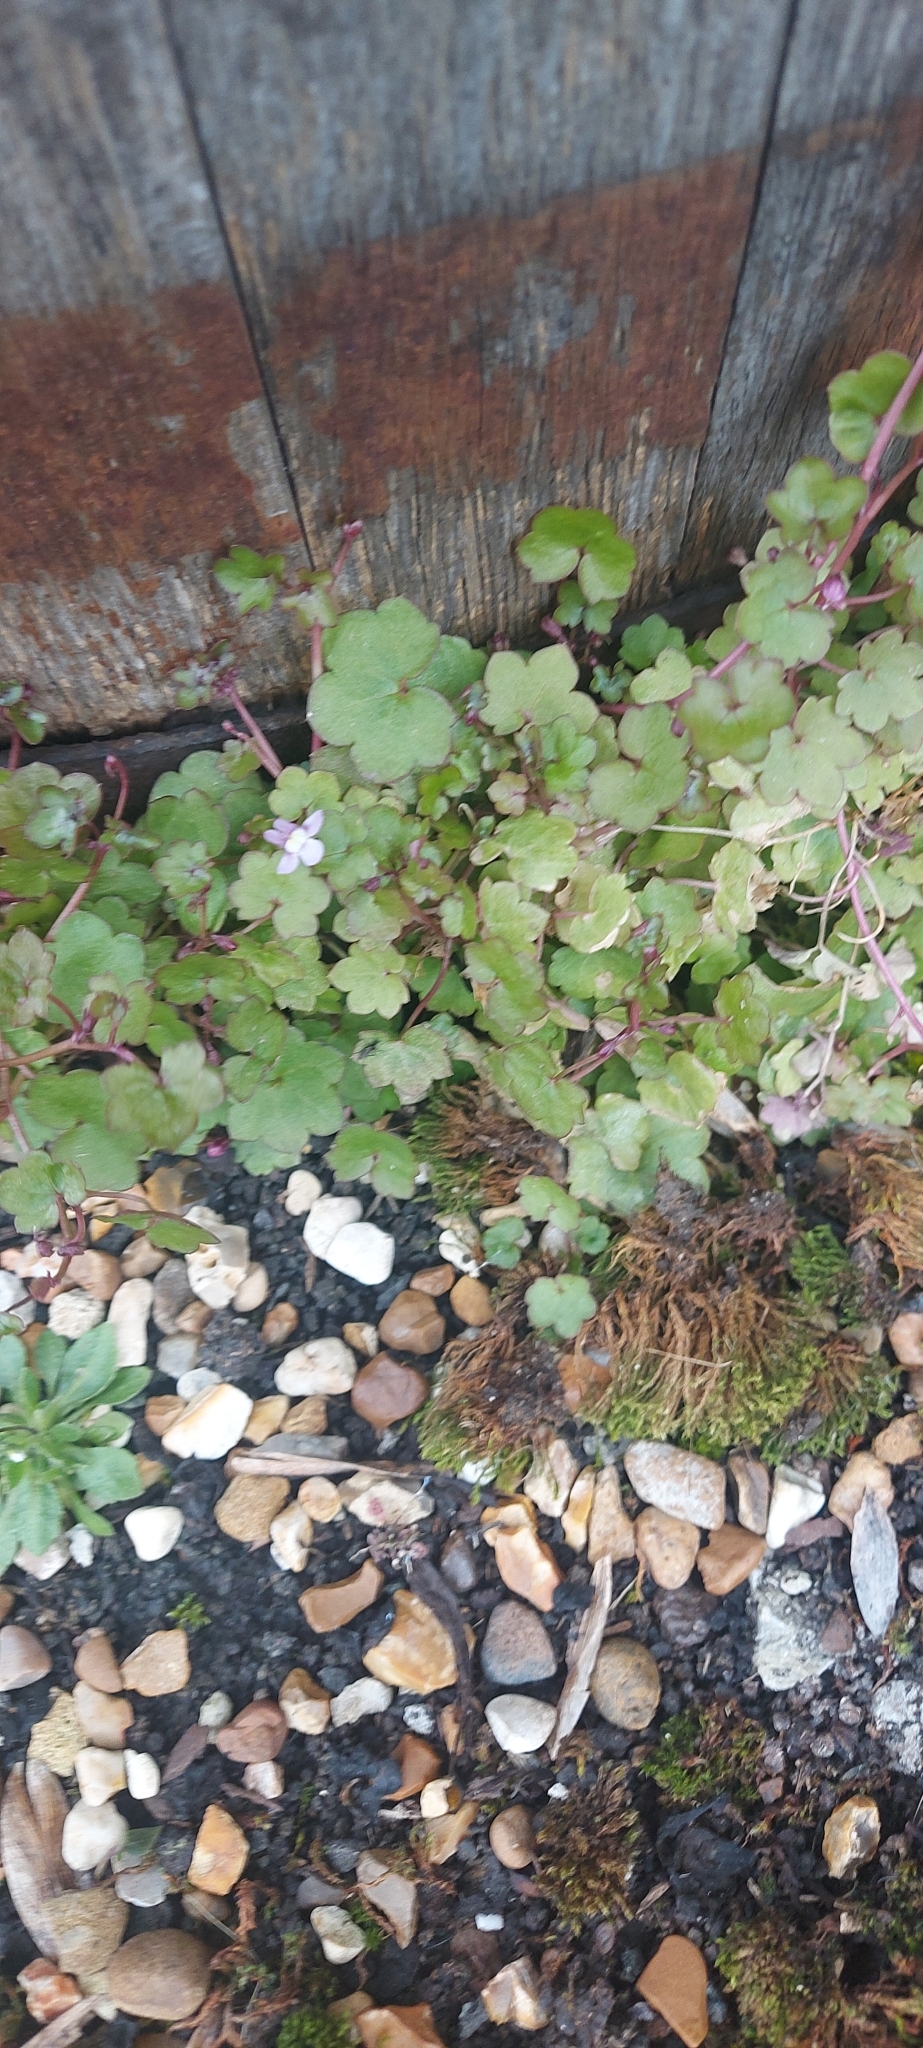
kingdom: Plantae
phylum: Tracheophyta
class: Magnoliopsida
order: Lamiales
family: Plantaginaceae
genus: Cymbalaria
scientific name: Cymbalaria muralis
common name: Ivy-leaved toadflax
